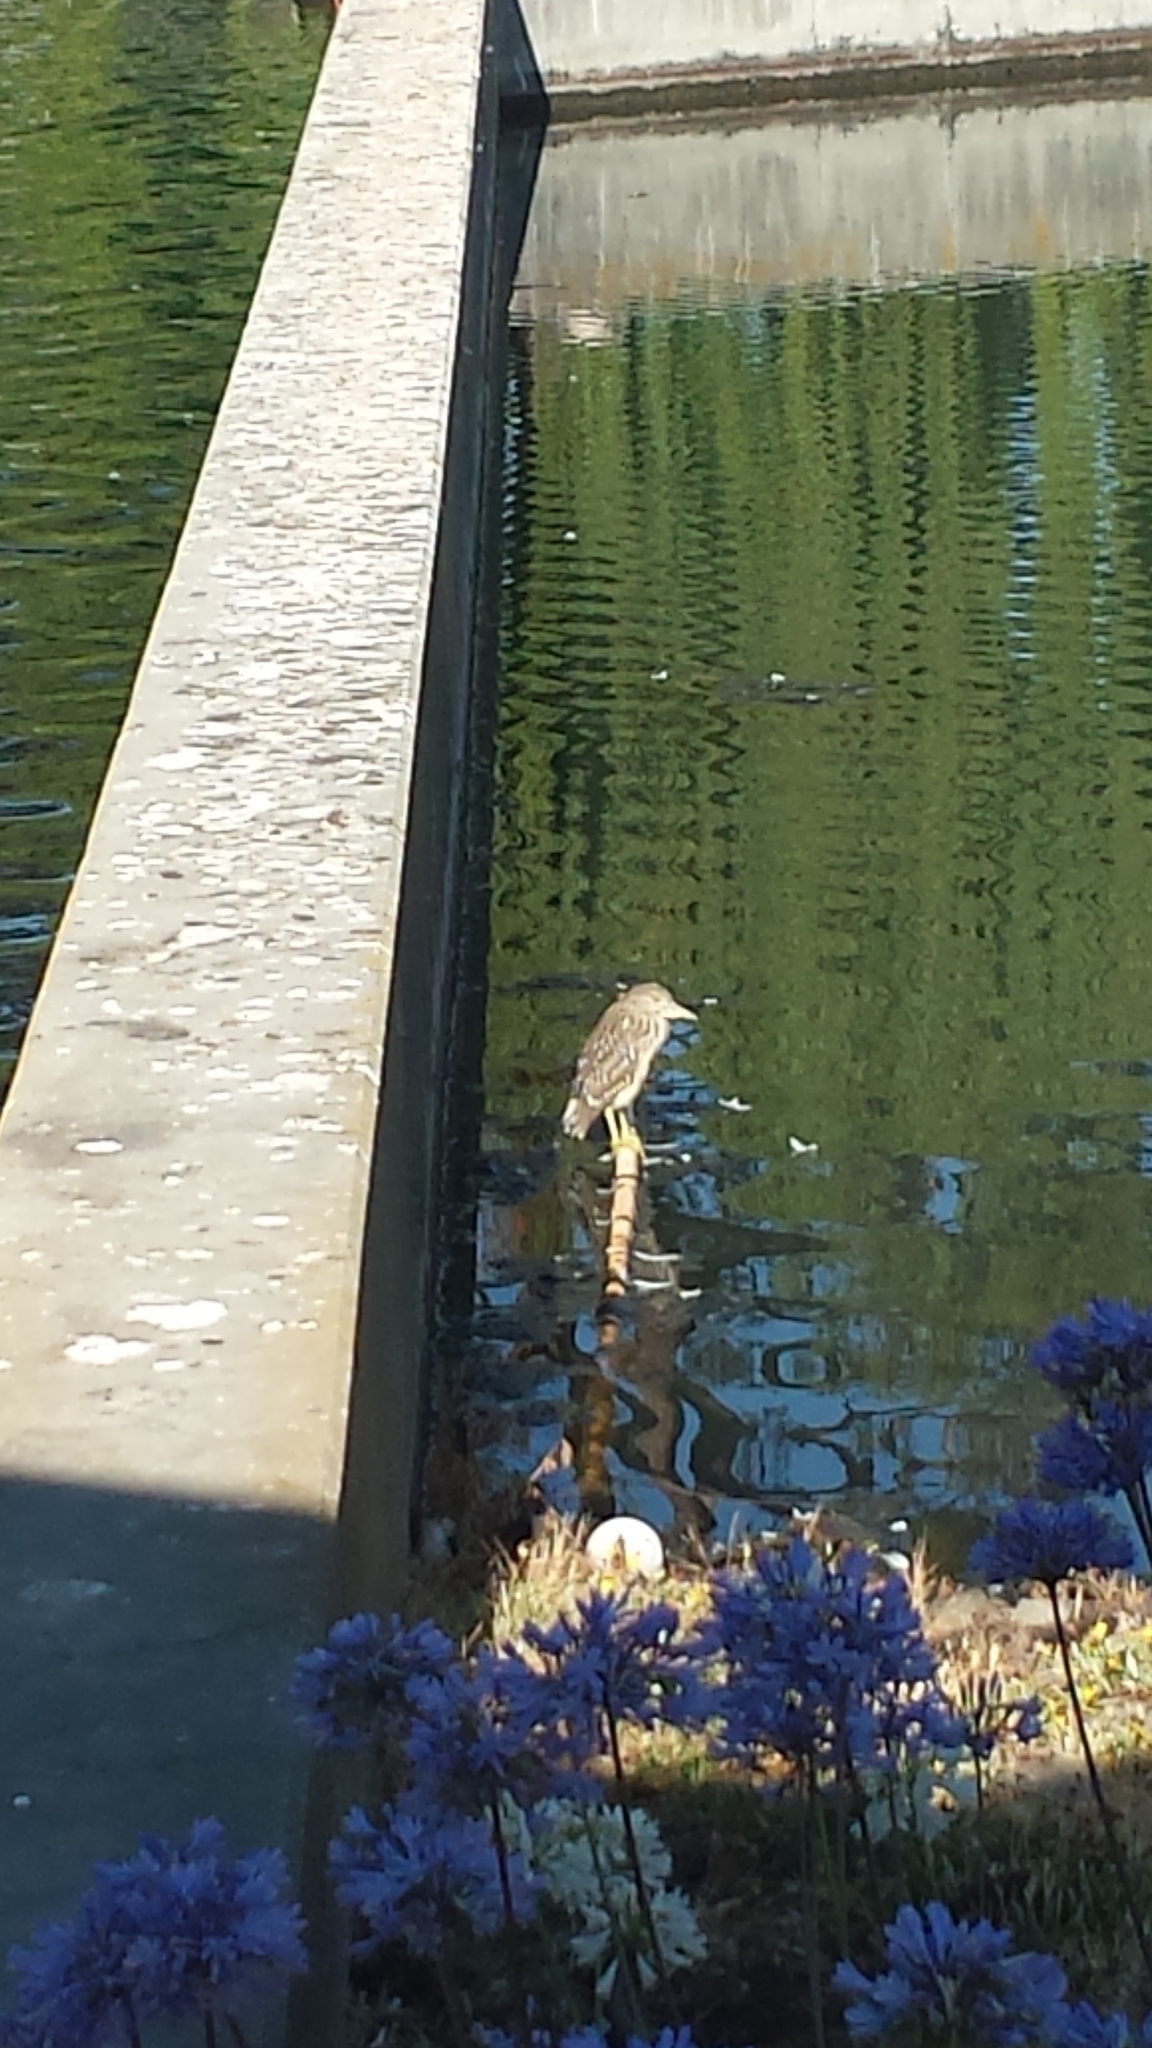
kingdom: Animalia
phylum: Chordata
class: Aves
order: Pelecaniformes
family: Ardeidae
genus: Nycticorax
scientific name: Nycticorax nycticorax
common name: Black-crowned night heron
